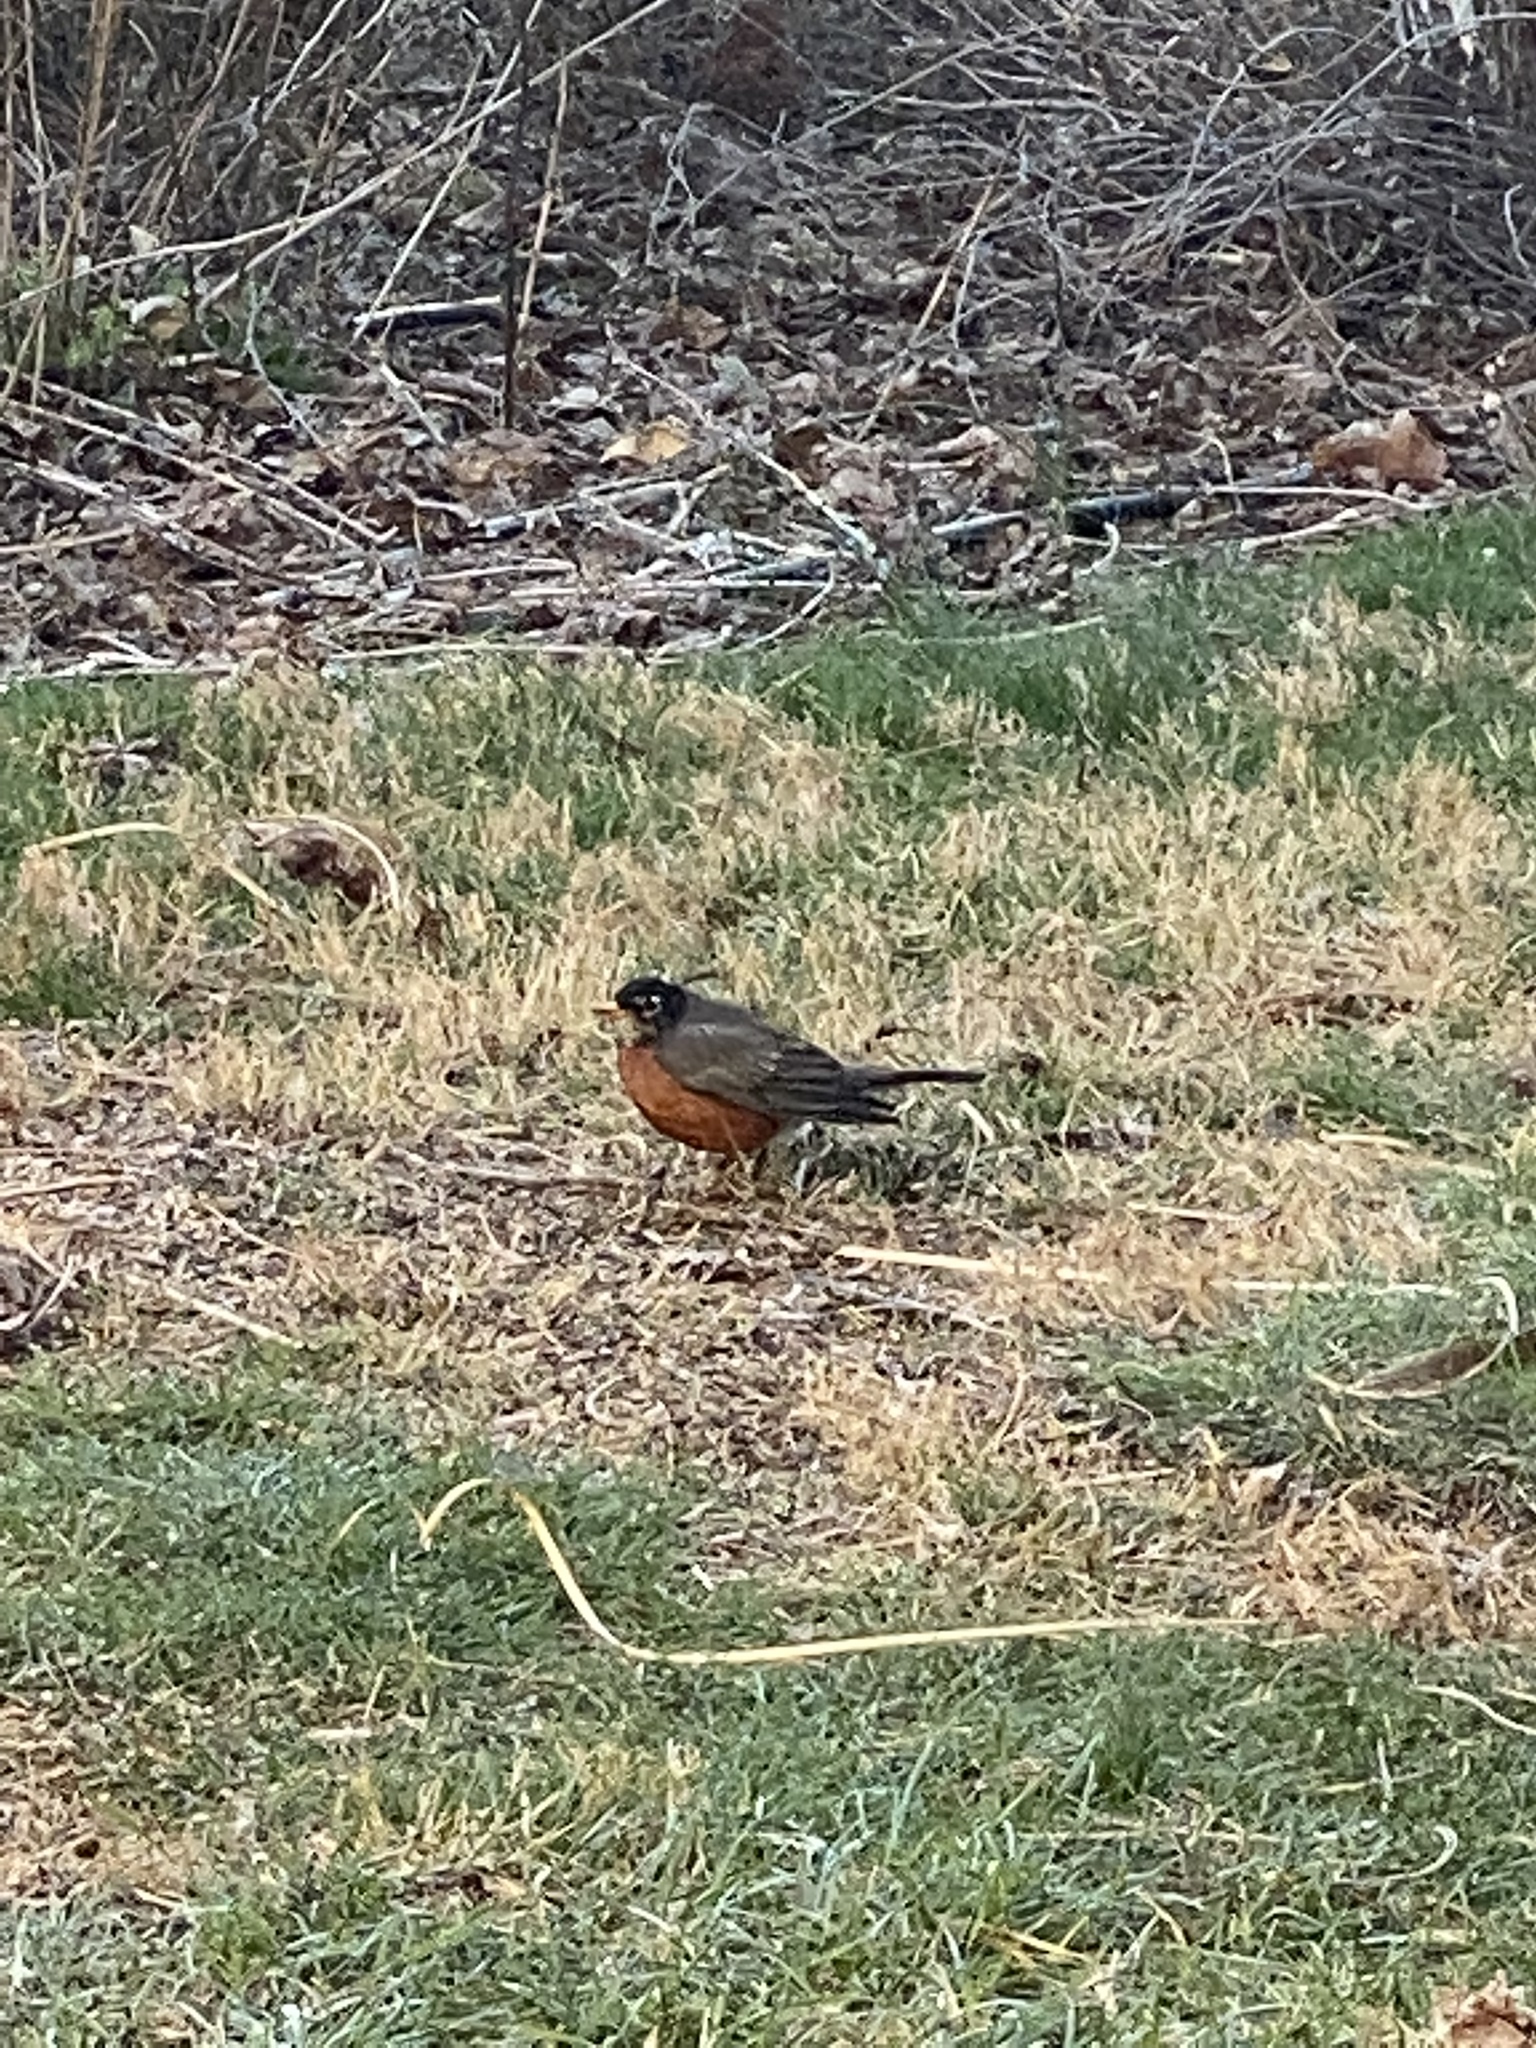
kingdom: Animalia
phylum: Chordata
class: Aves
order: Passeriformes
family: Turdidae
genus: Turdus
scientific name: Turdus migratorius
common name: American robin
